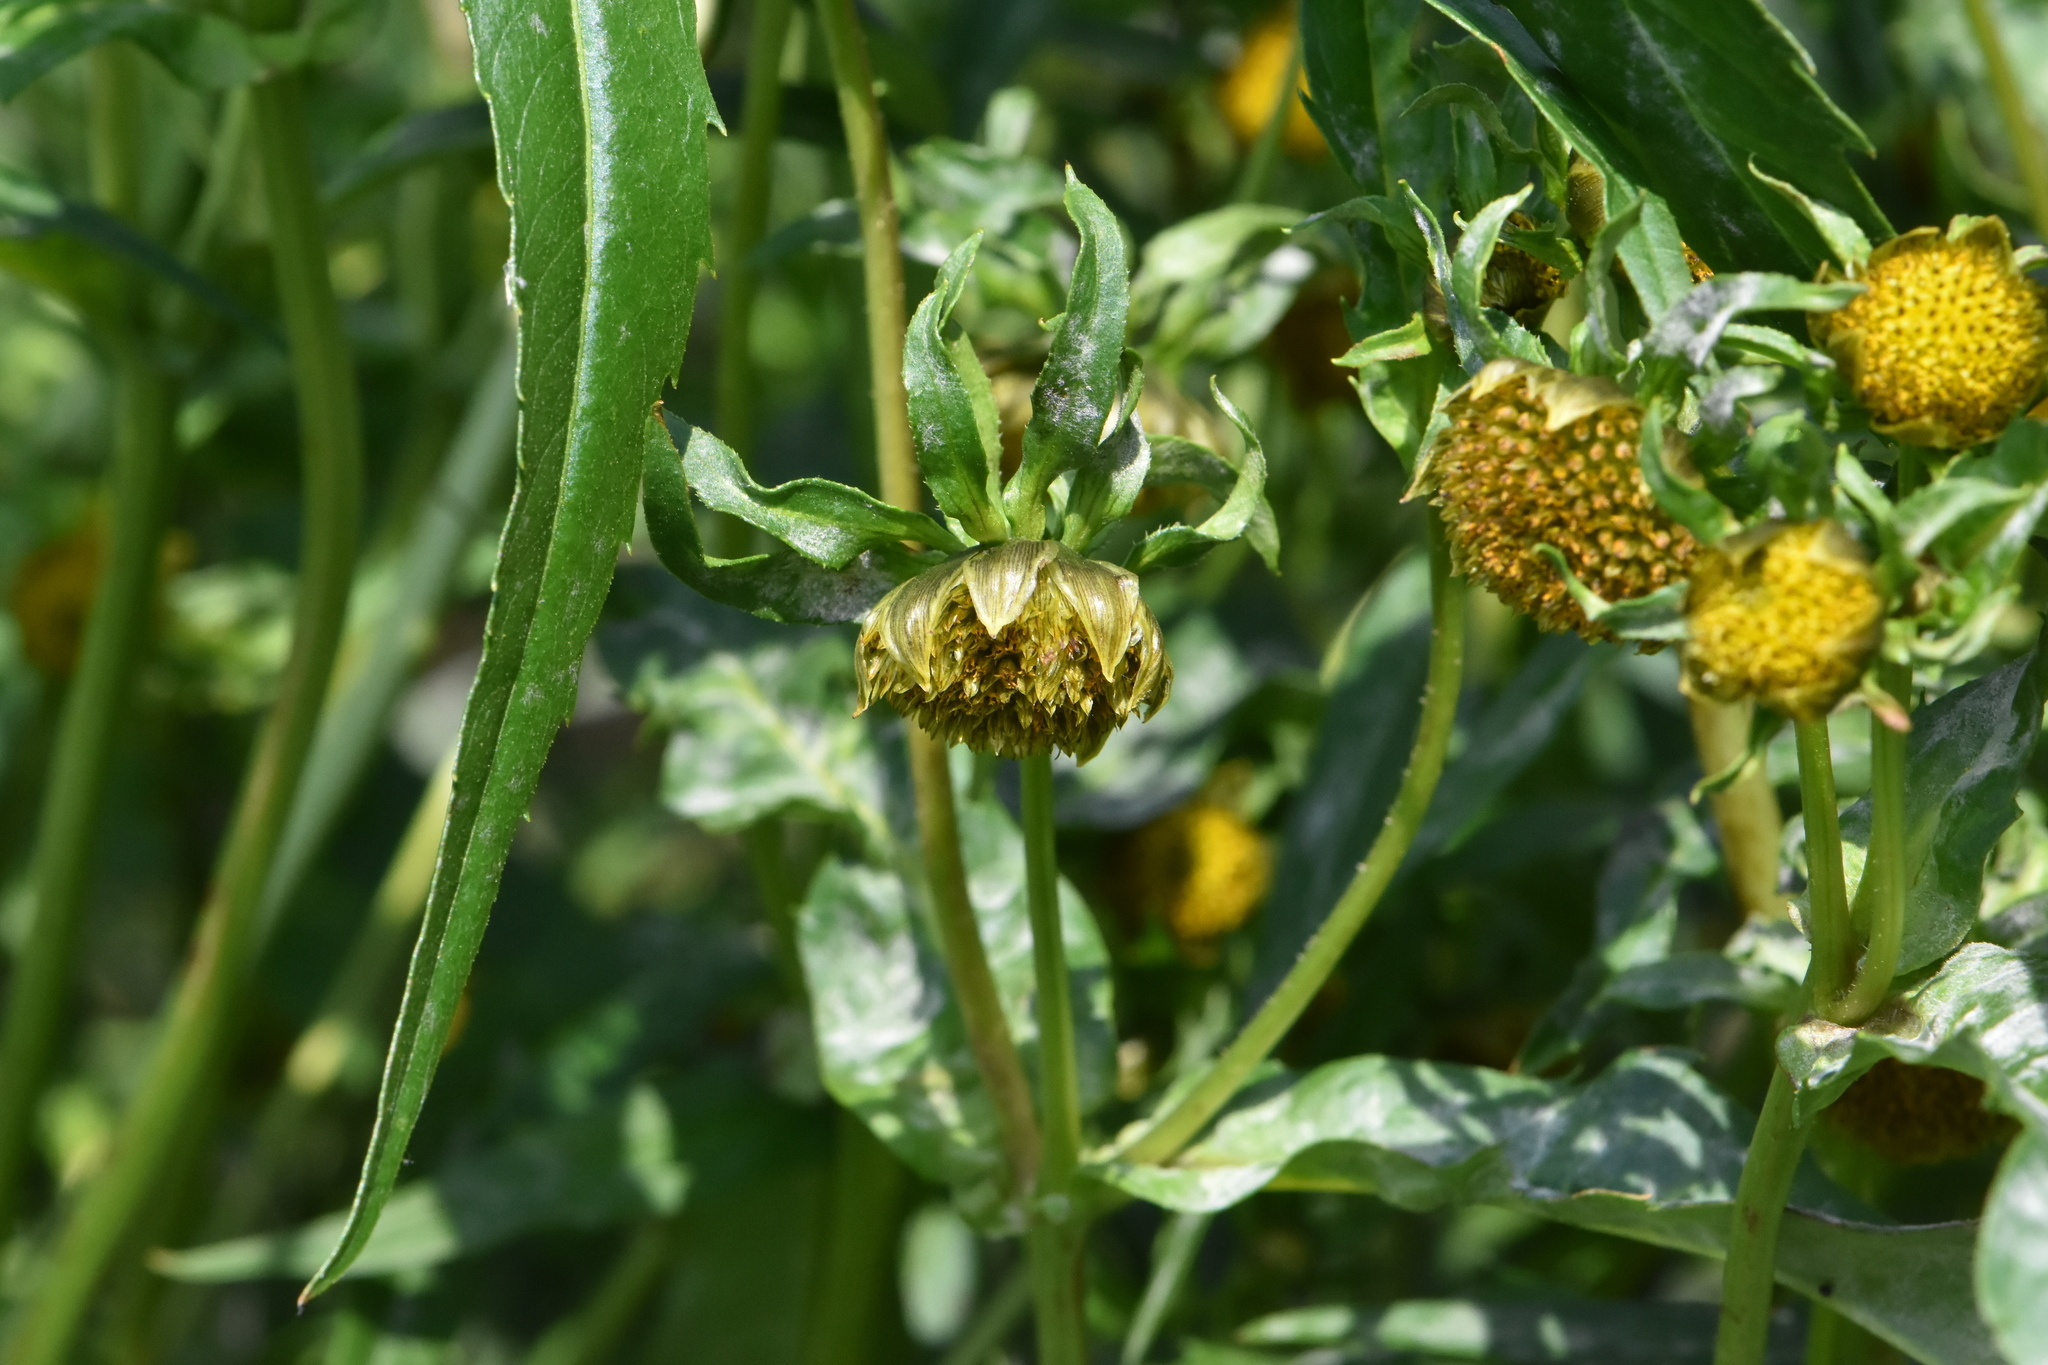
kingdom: Plantae
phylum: Tracheophyta
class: Magnoliopsida
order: Asterales
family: Asteraceae
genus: Bidens
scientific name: Bidens cernua
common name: Nodding bur-marigold
